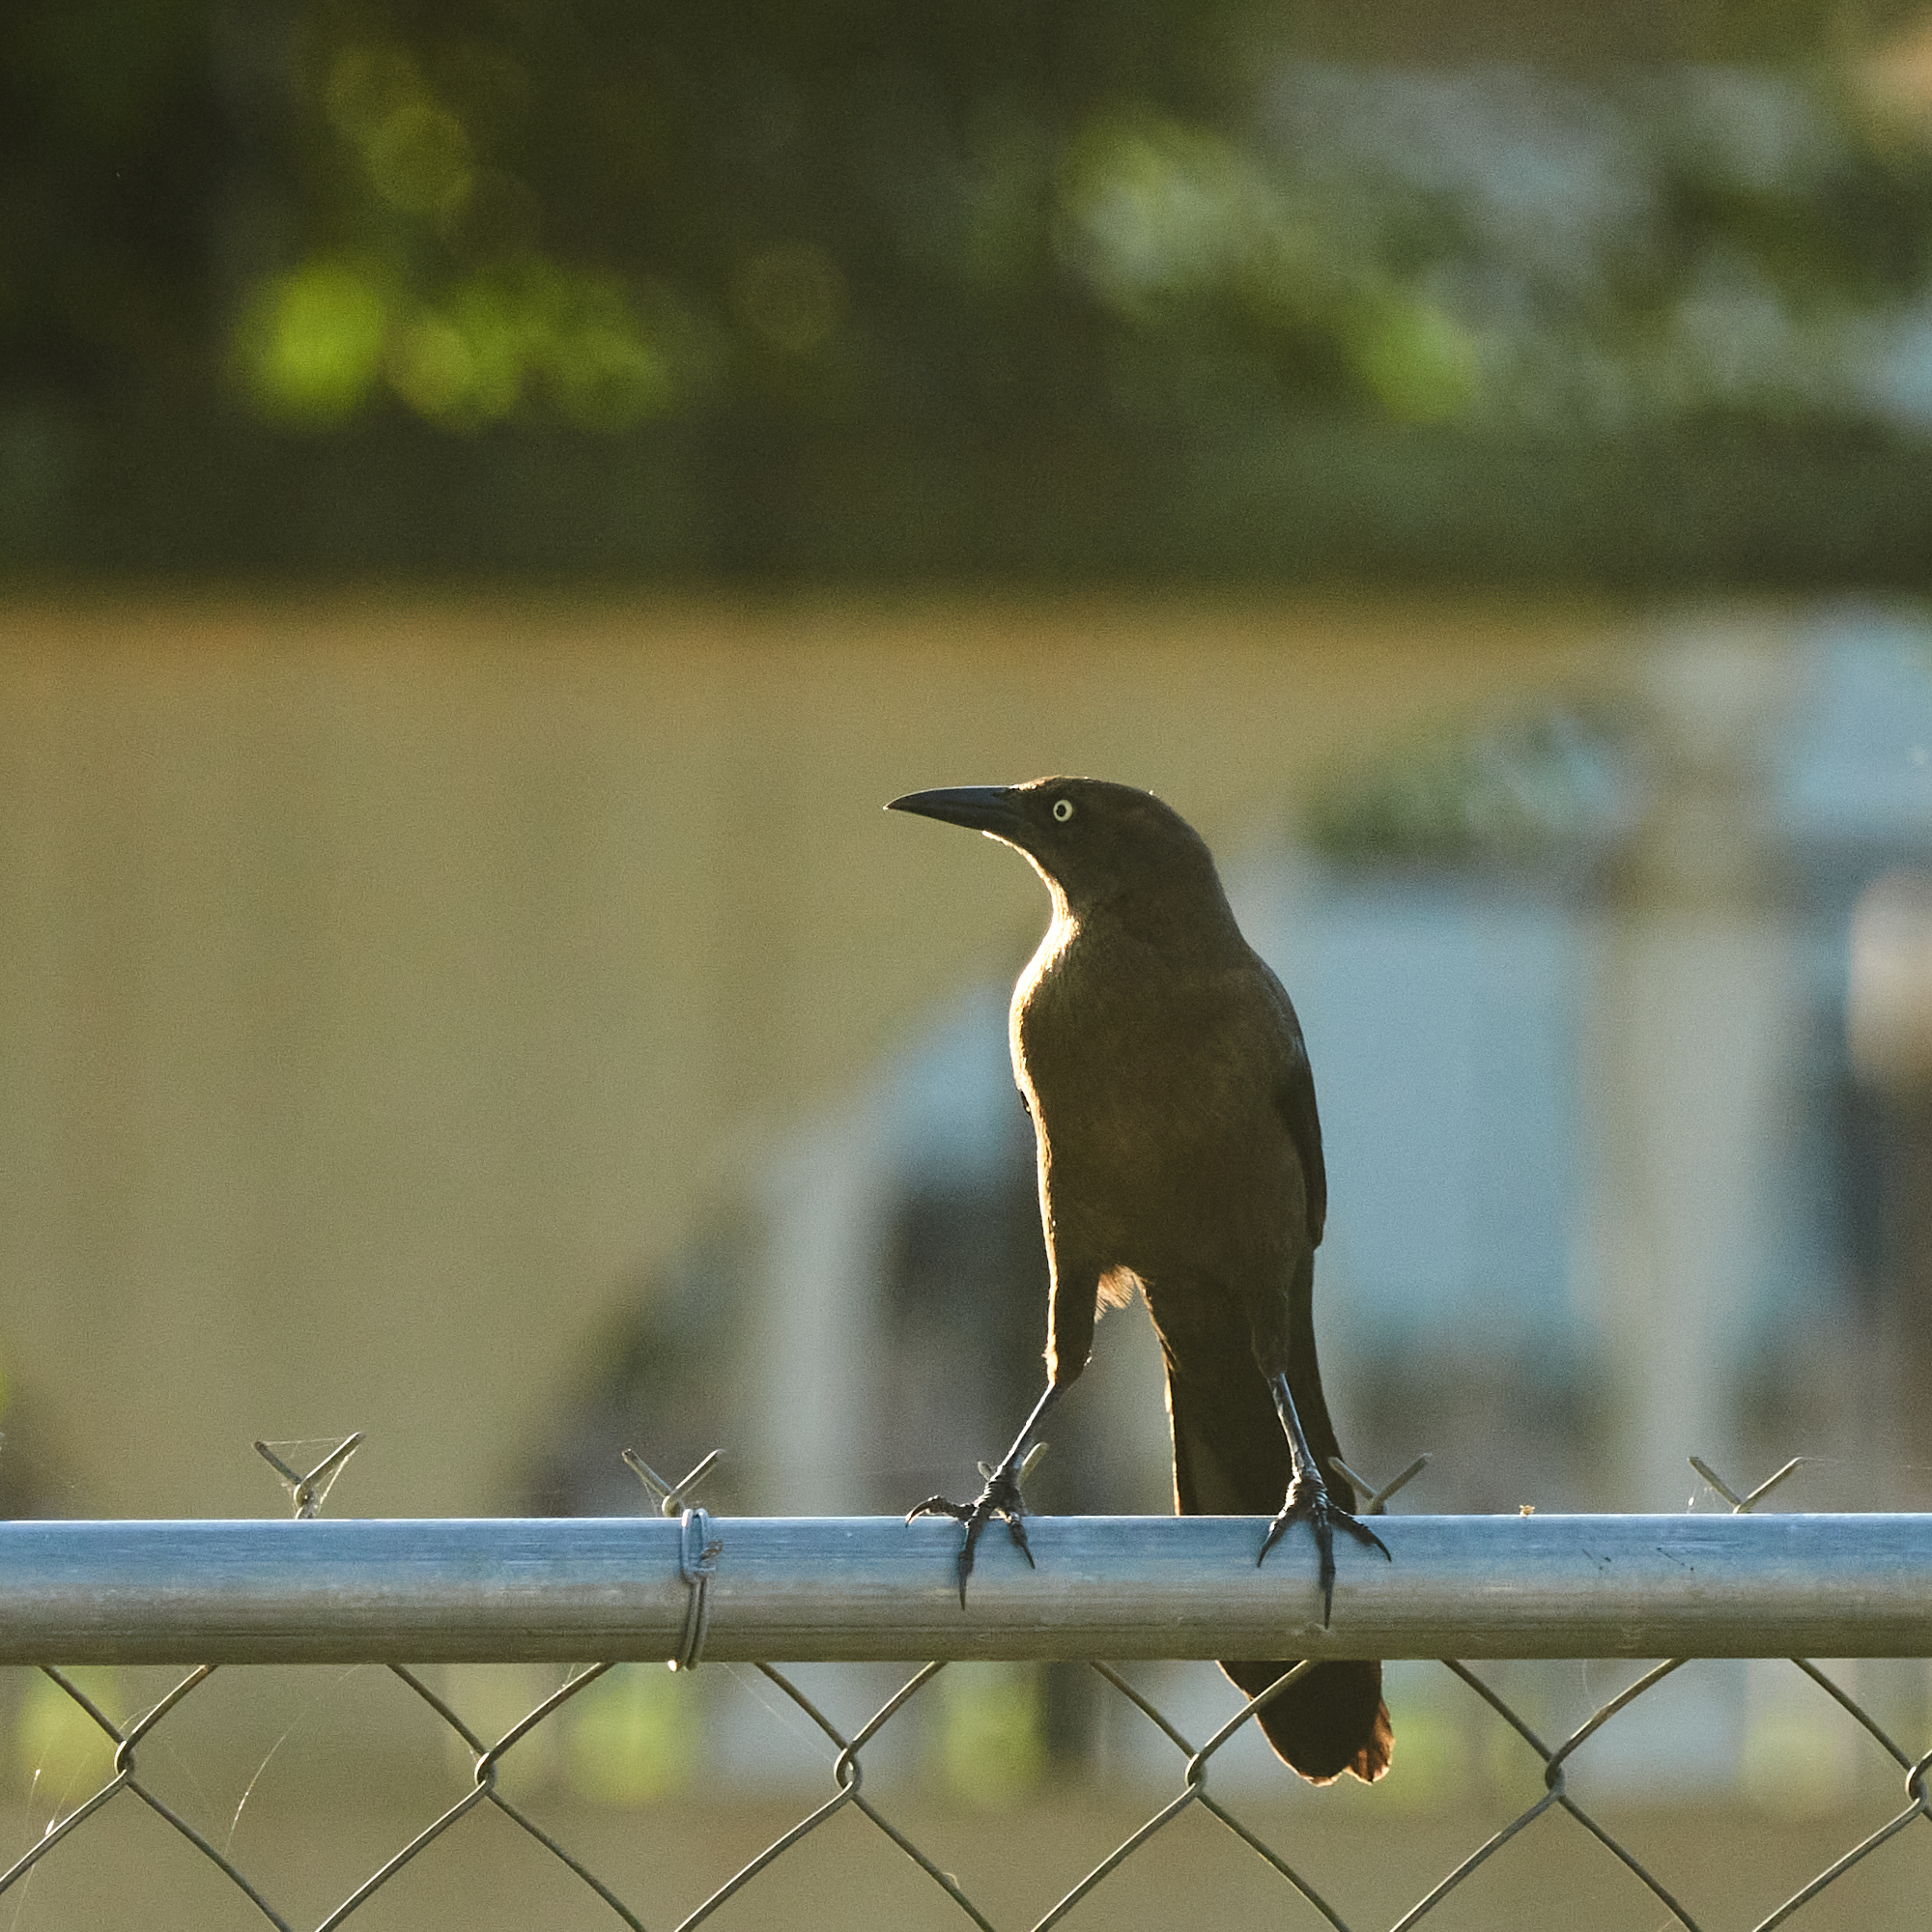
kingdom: Animalia
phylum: Chordata
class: Aves
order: Passeriformes
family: Icteridae
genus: Quiscalus
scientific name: Quiscalus mexicanus
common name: Great-tailed grackle
